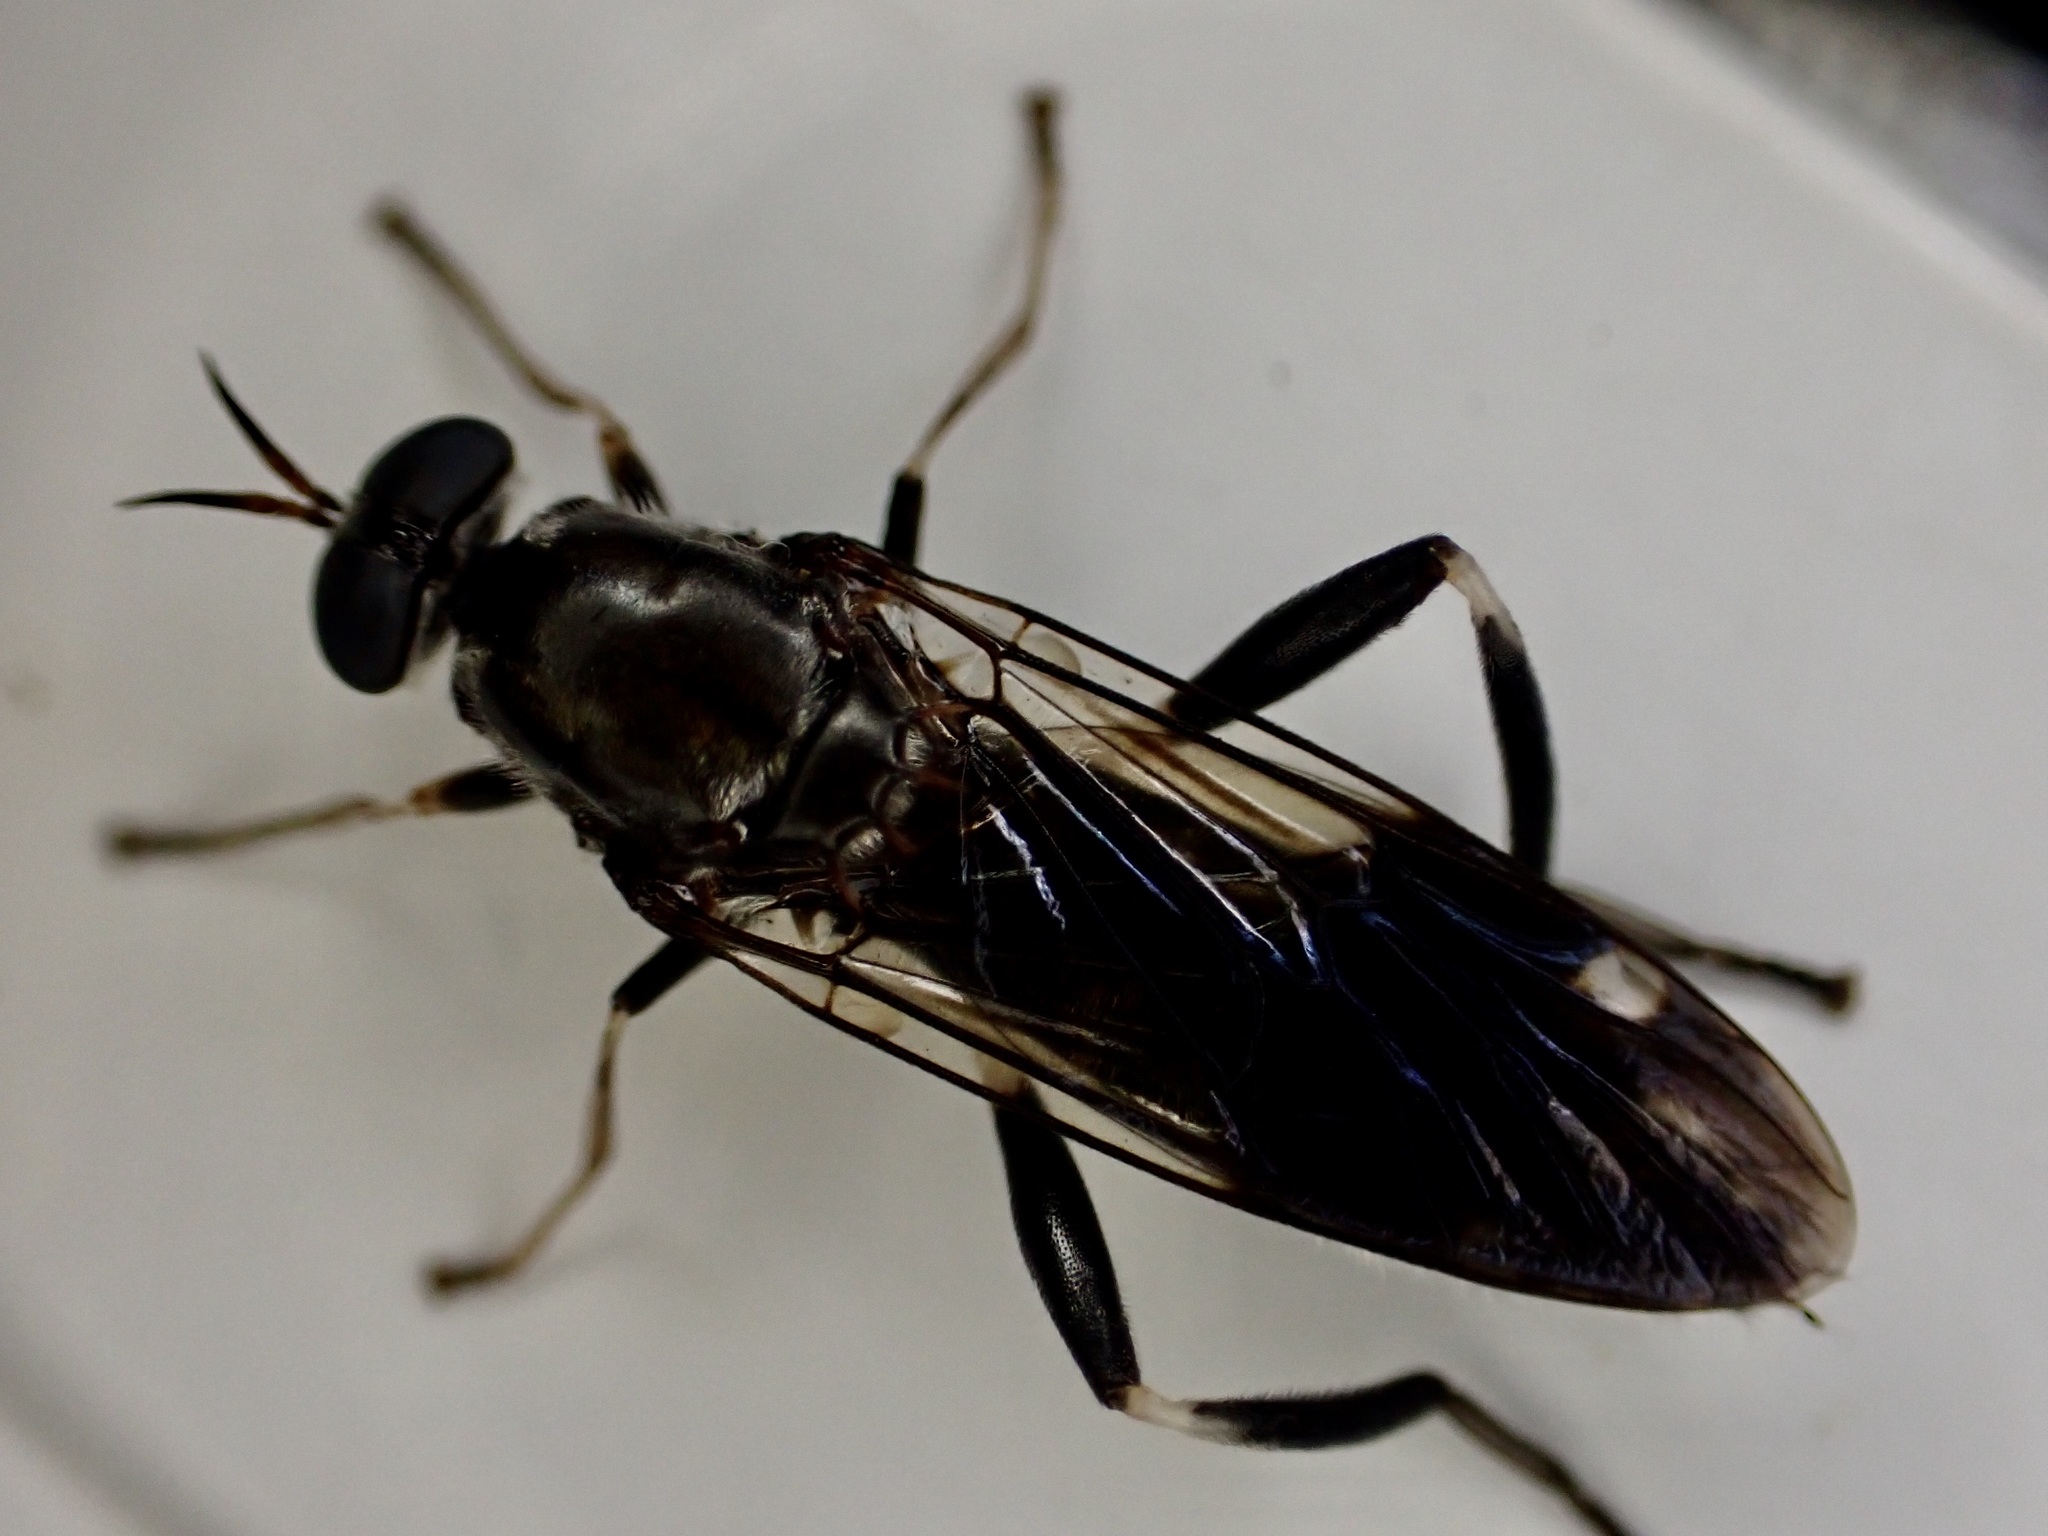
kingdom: Animalia
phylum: Arthropoda
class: Insecta
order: Diptera
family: Stratiomyidae
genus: Exaireta
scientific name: Exaireta spinigera
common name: Blue soldier fly
